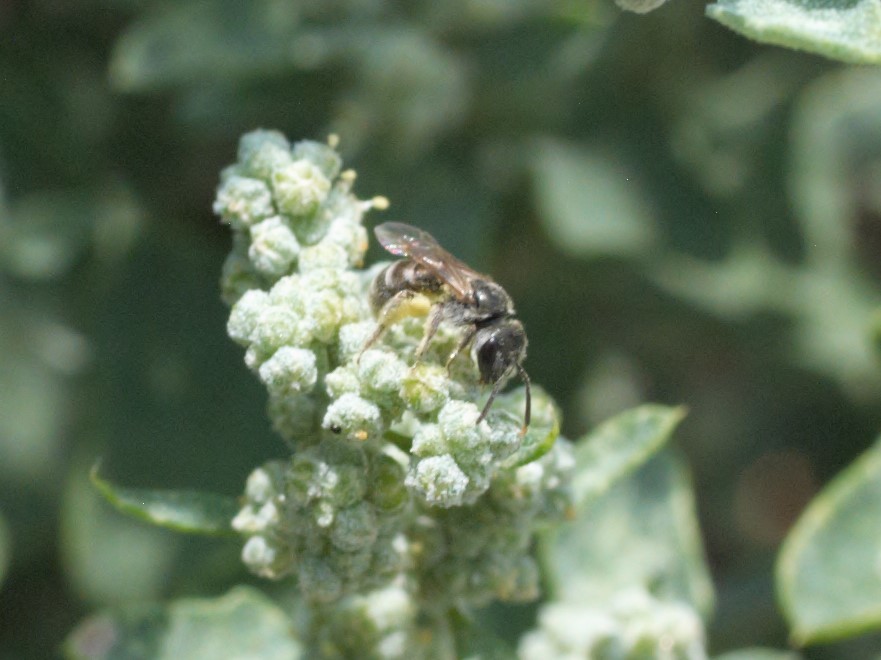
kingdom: Animalia
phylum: Arthropoda
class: Insecta
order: Hymenoptera
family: Halictidae
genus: Halictus
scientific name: Halictus tripartitus
